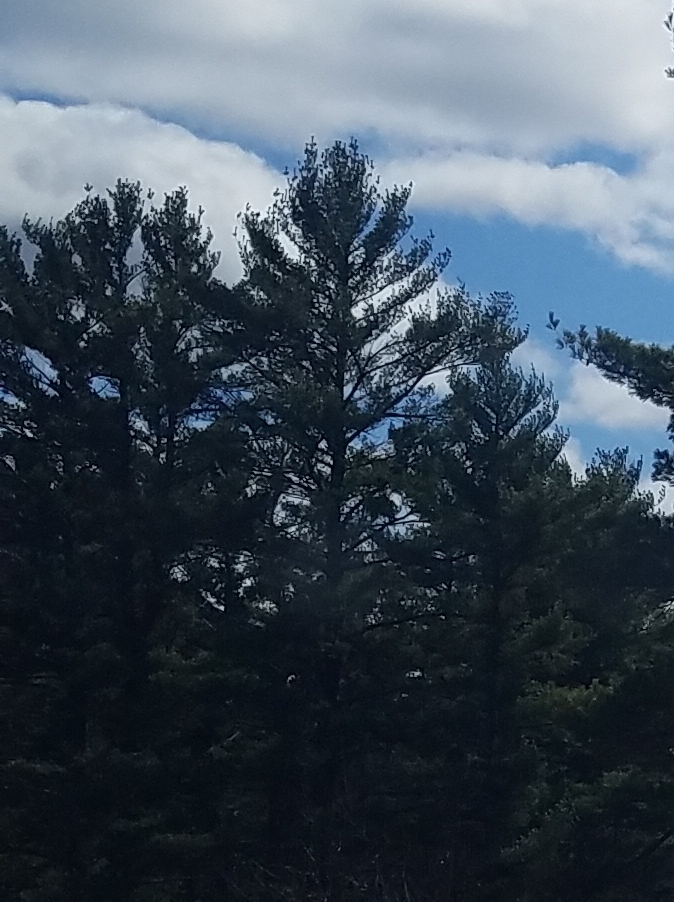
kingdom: Plantae
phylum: Tracheophyta
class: Pinopsida
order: Pinales
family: Pinaceae
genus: Pinus
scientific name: Pinus strobus
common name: Weymouth pine
